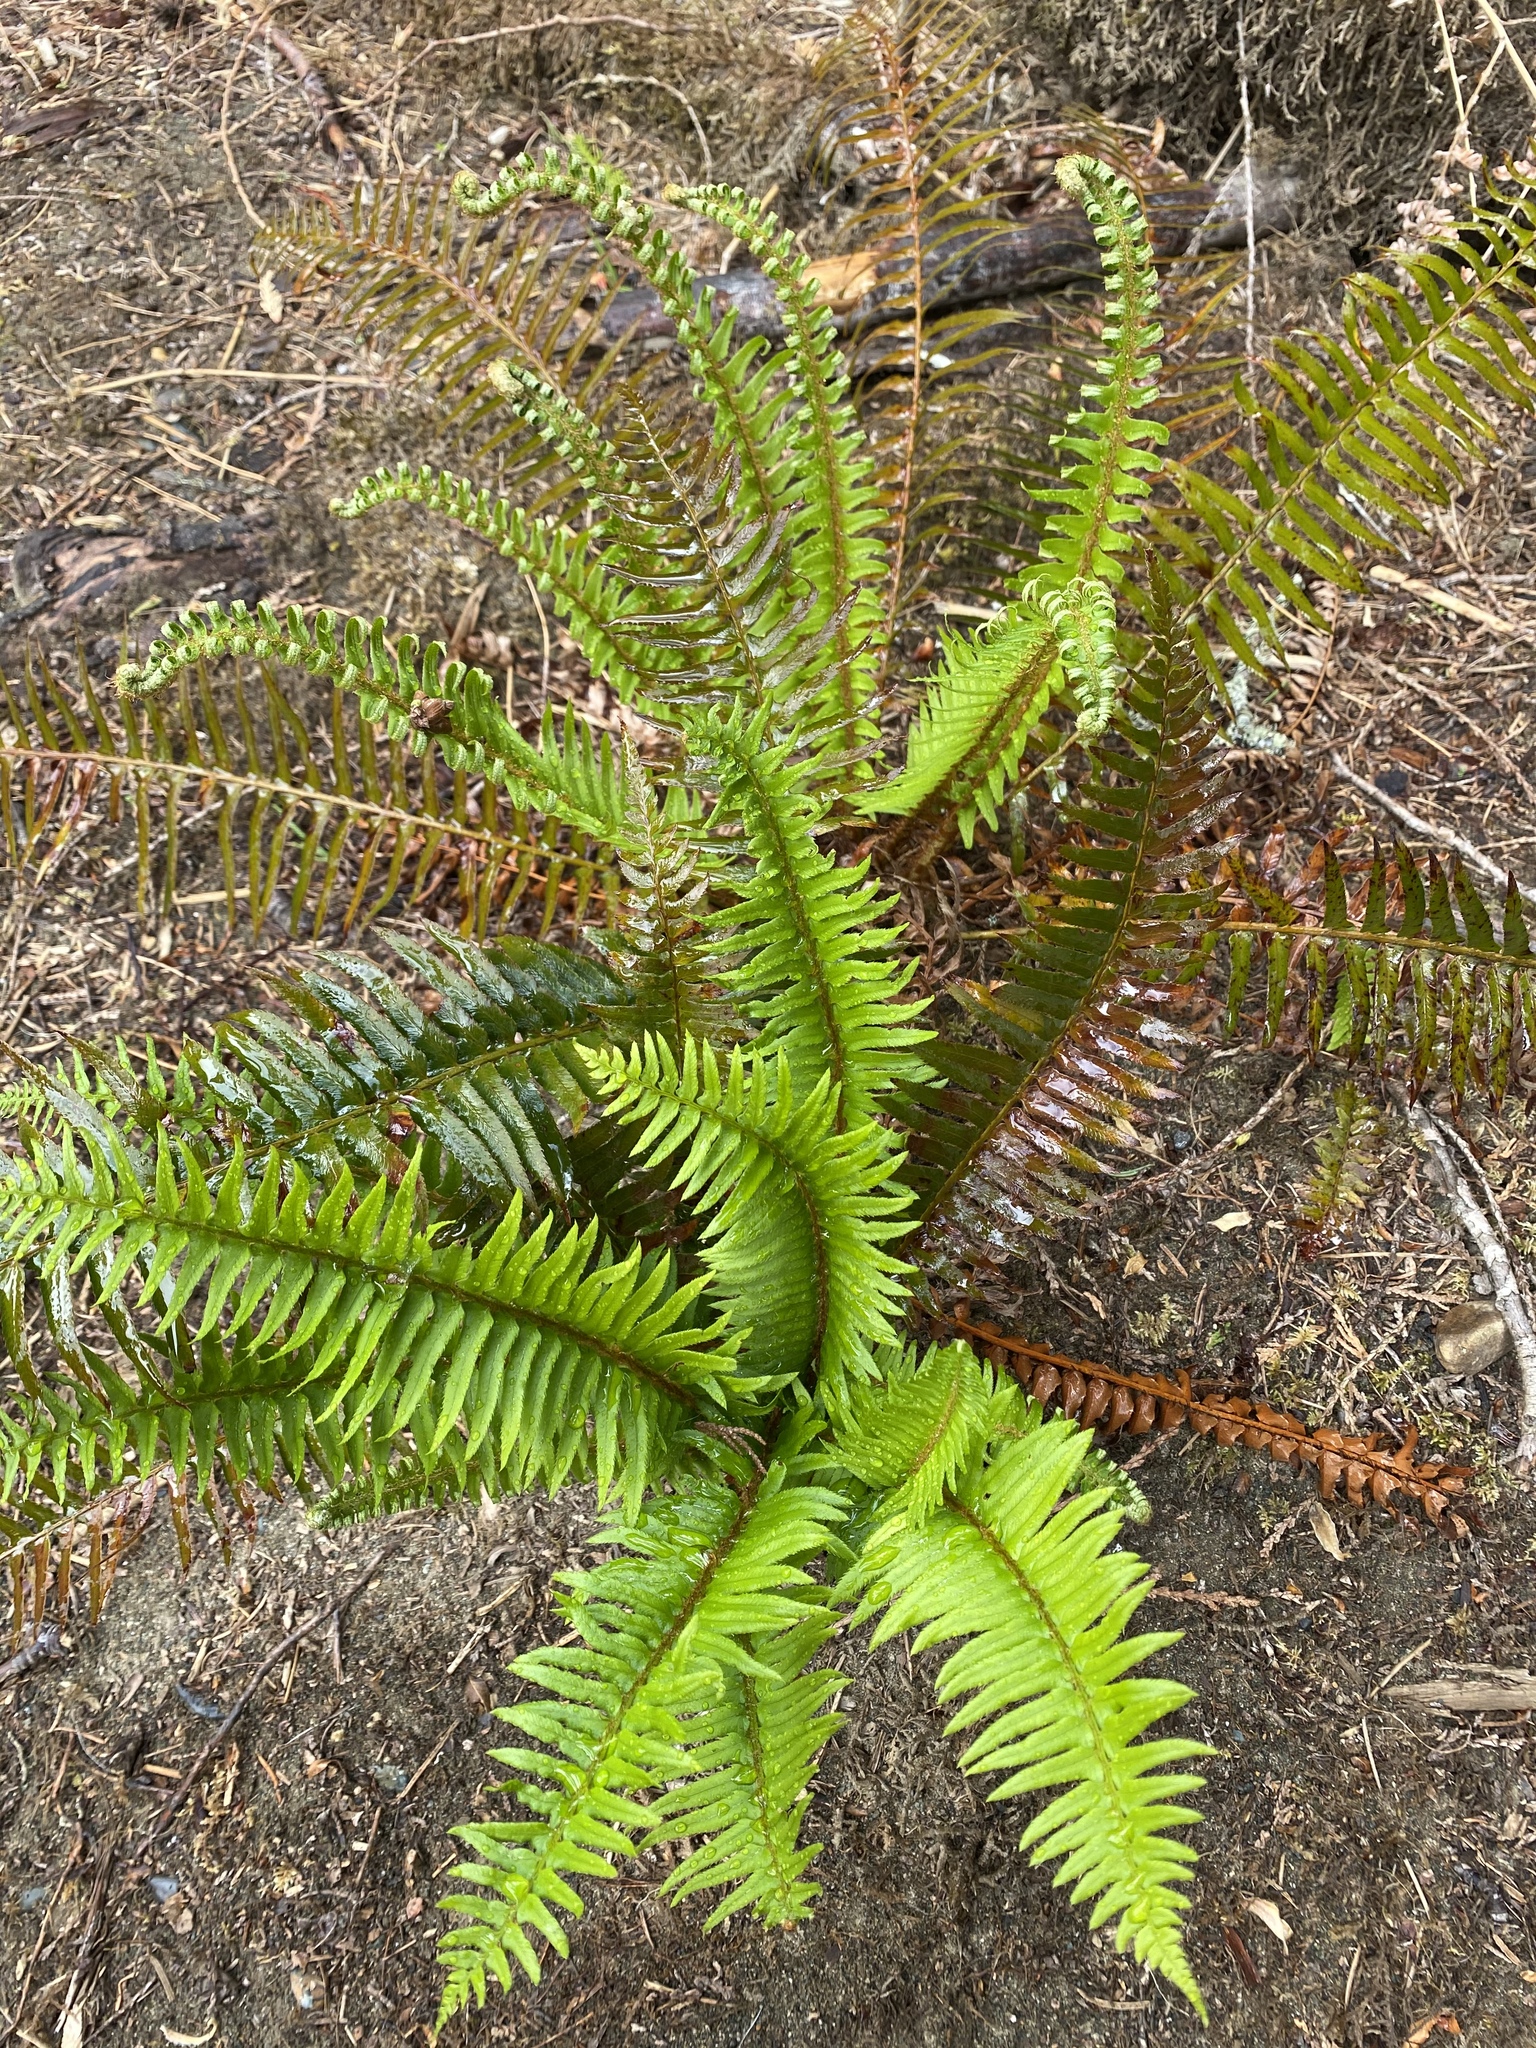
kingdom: Plantae
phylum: Tracheophyta
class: Polypodiopsida
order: Polypodiales
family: Dryopteridaceae
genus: Polystichum
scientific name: Polystichum munitum
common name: Western sword-fern
